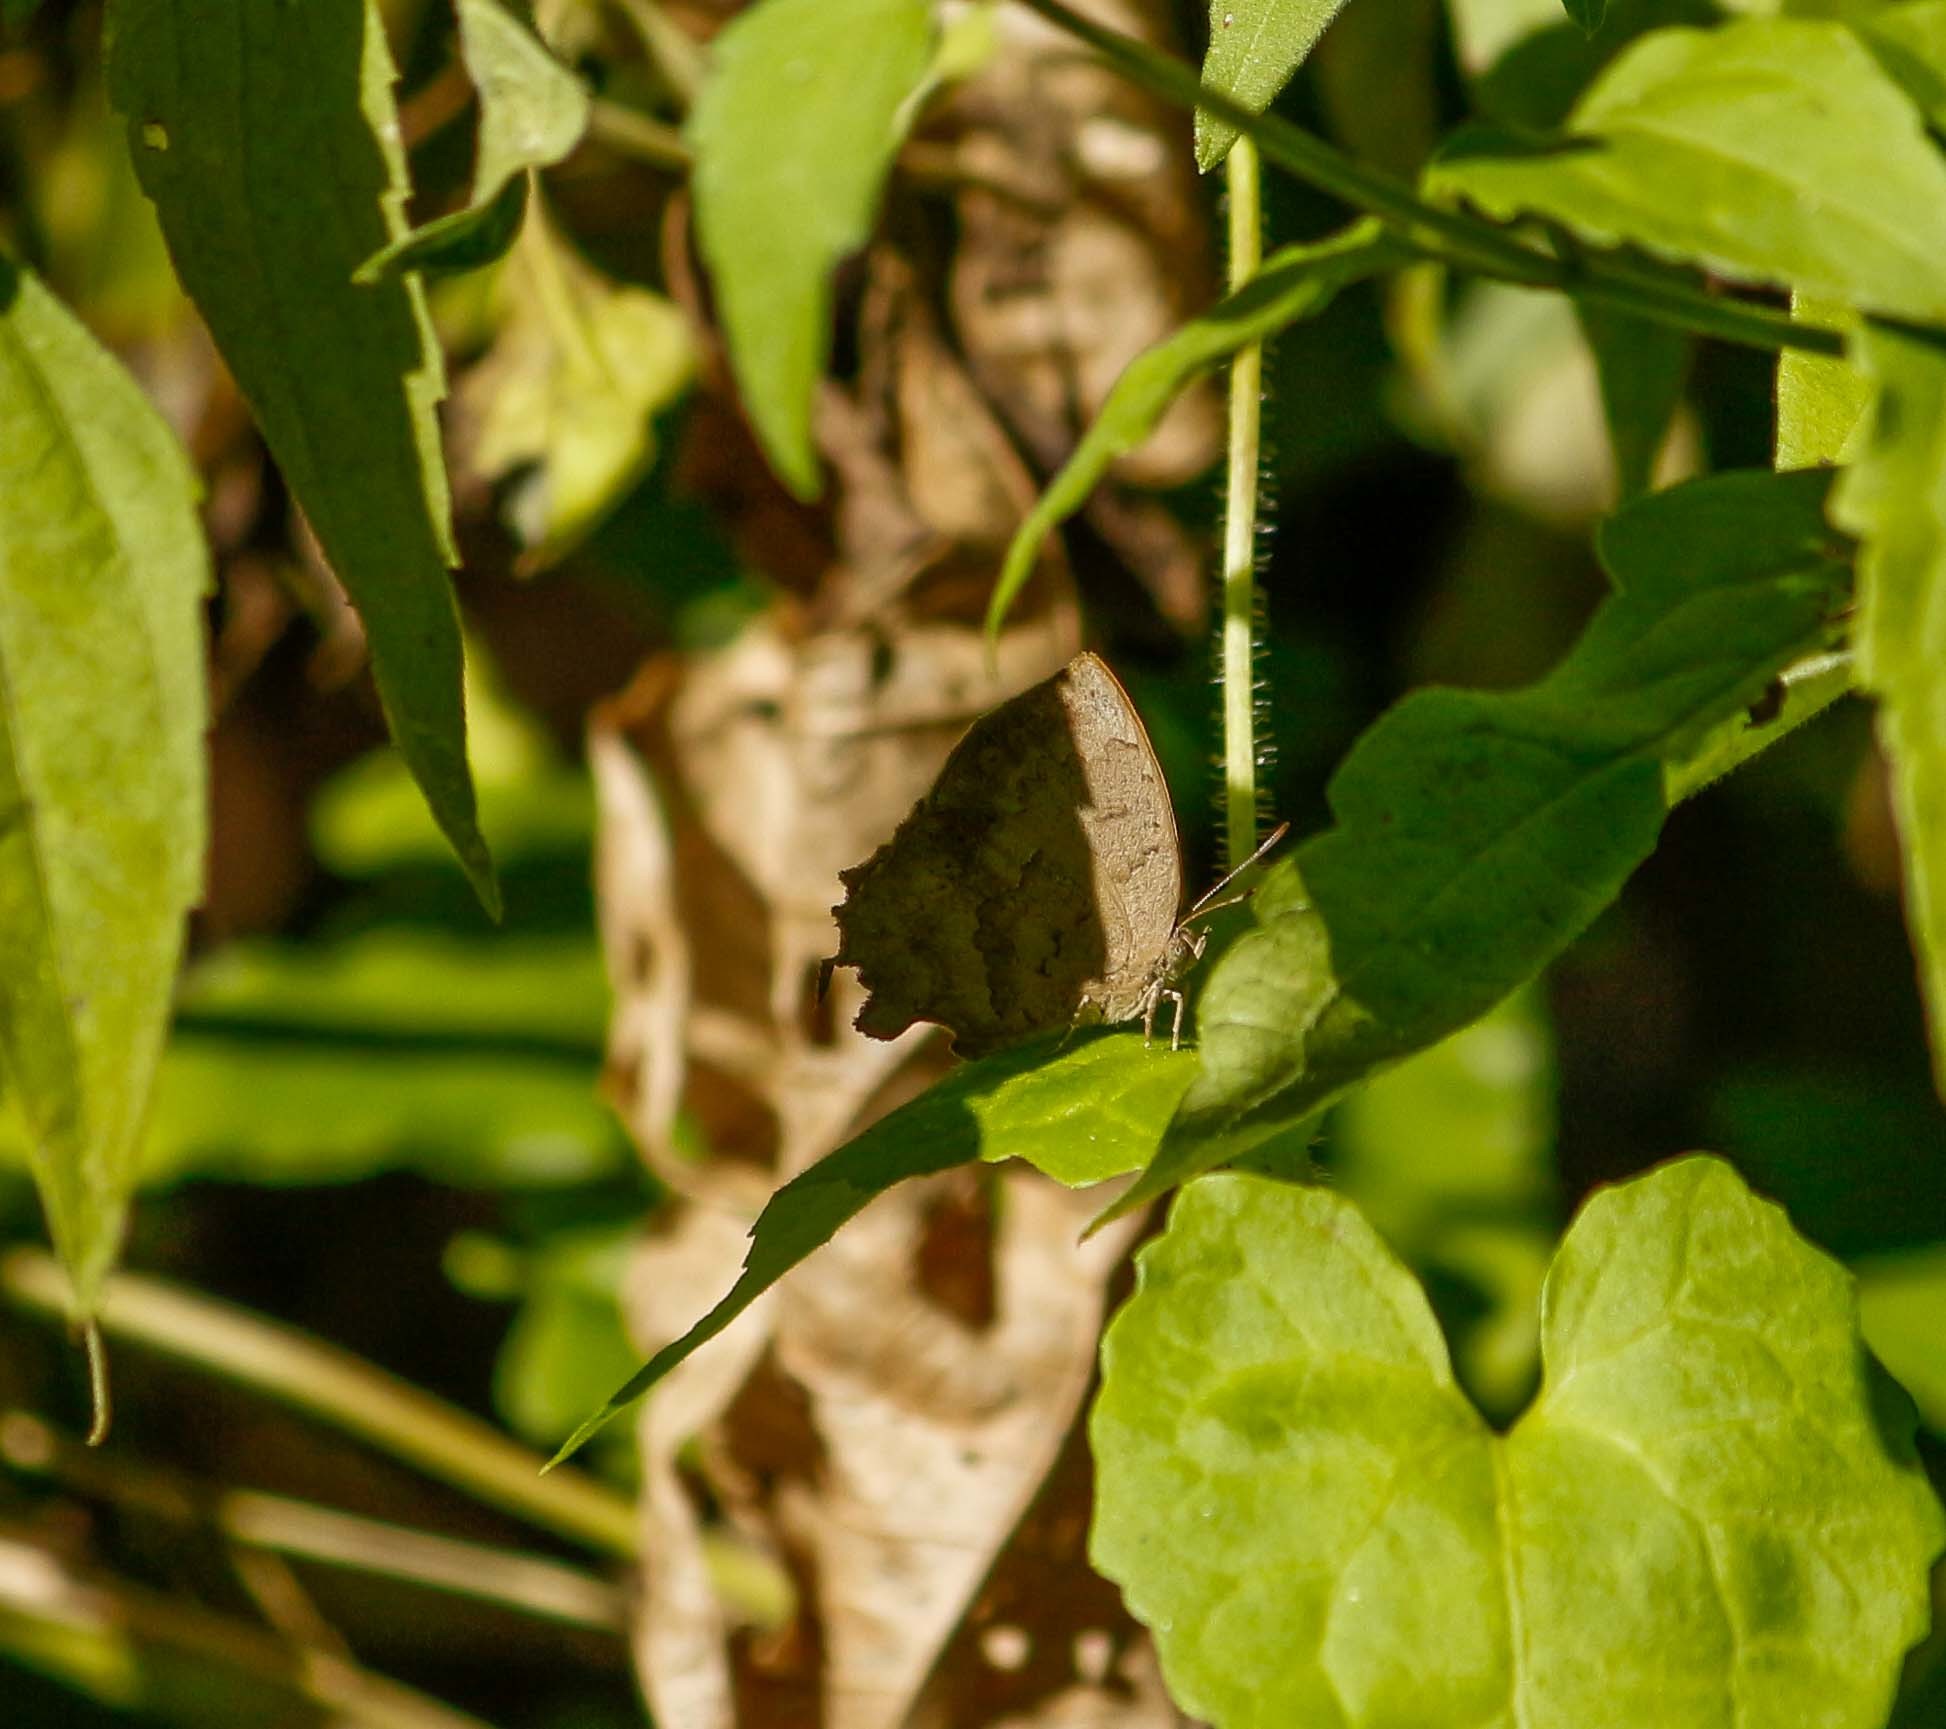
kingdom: Animalia
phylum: Arthropoda
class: Insecta
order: Lepidoptera
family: Lycaenidae
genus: Surendra
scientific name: Surendra quercetorum
